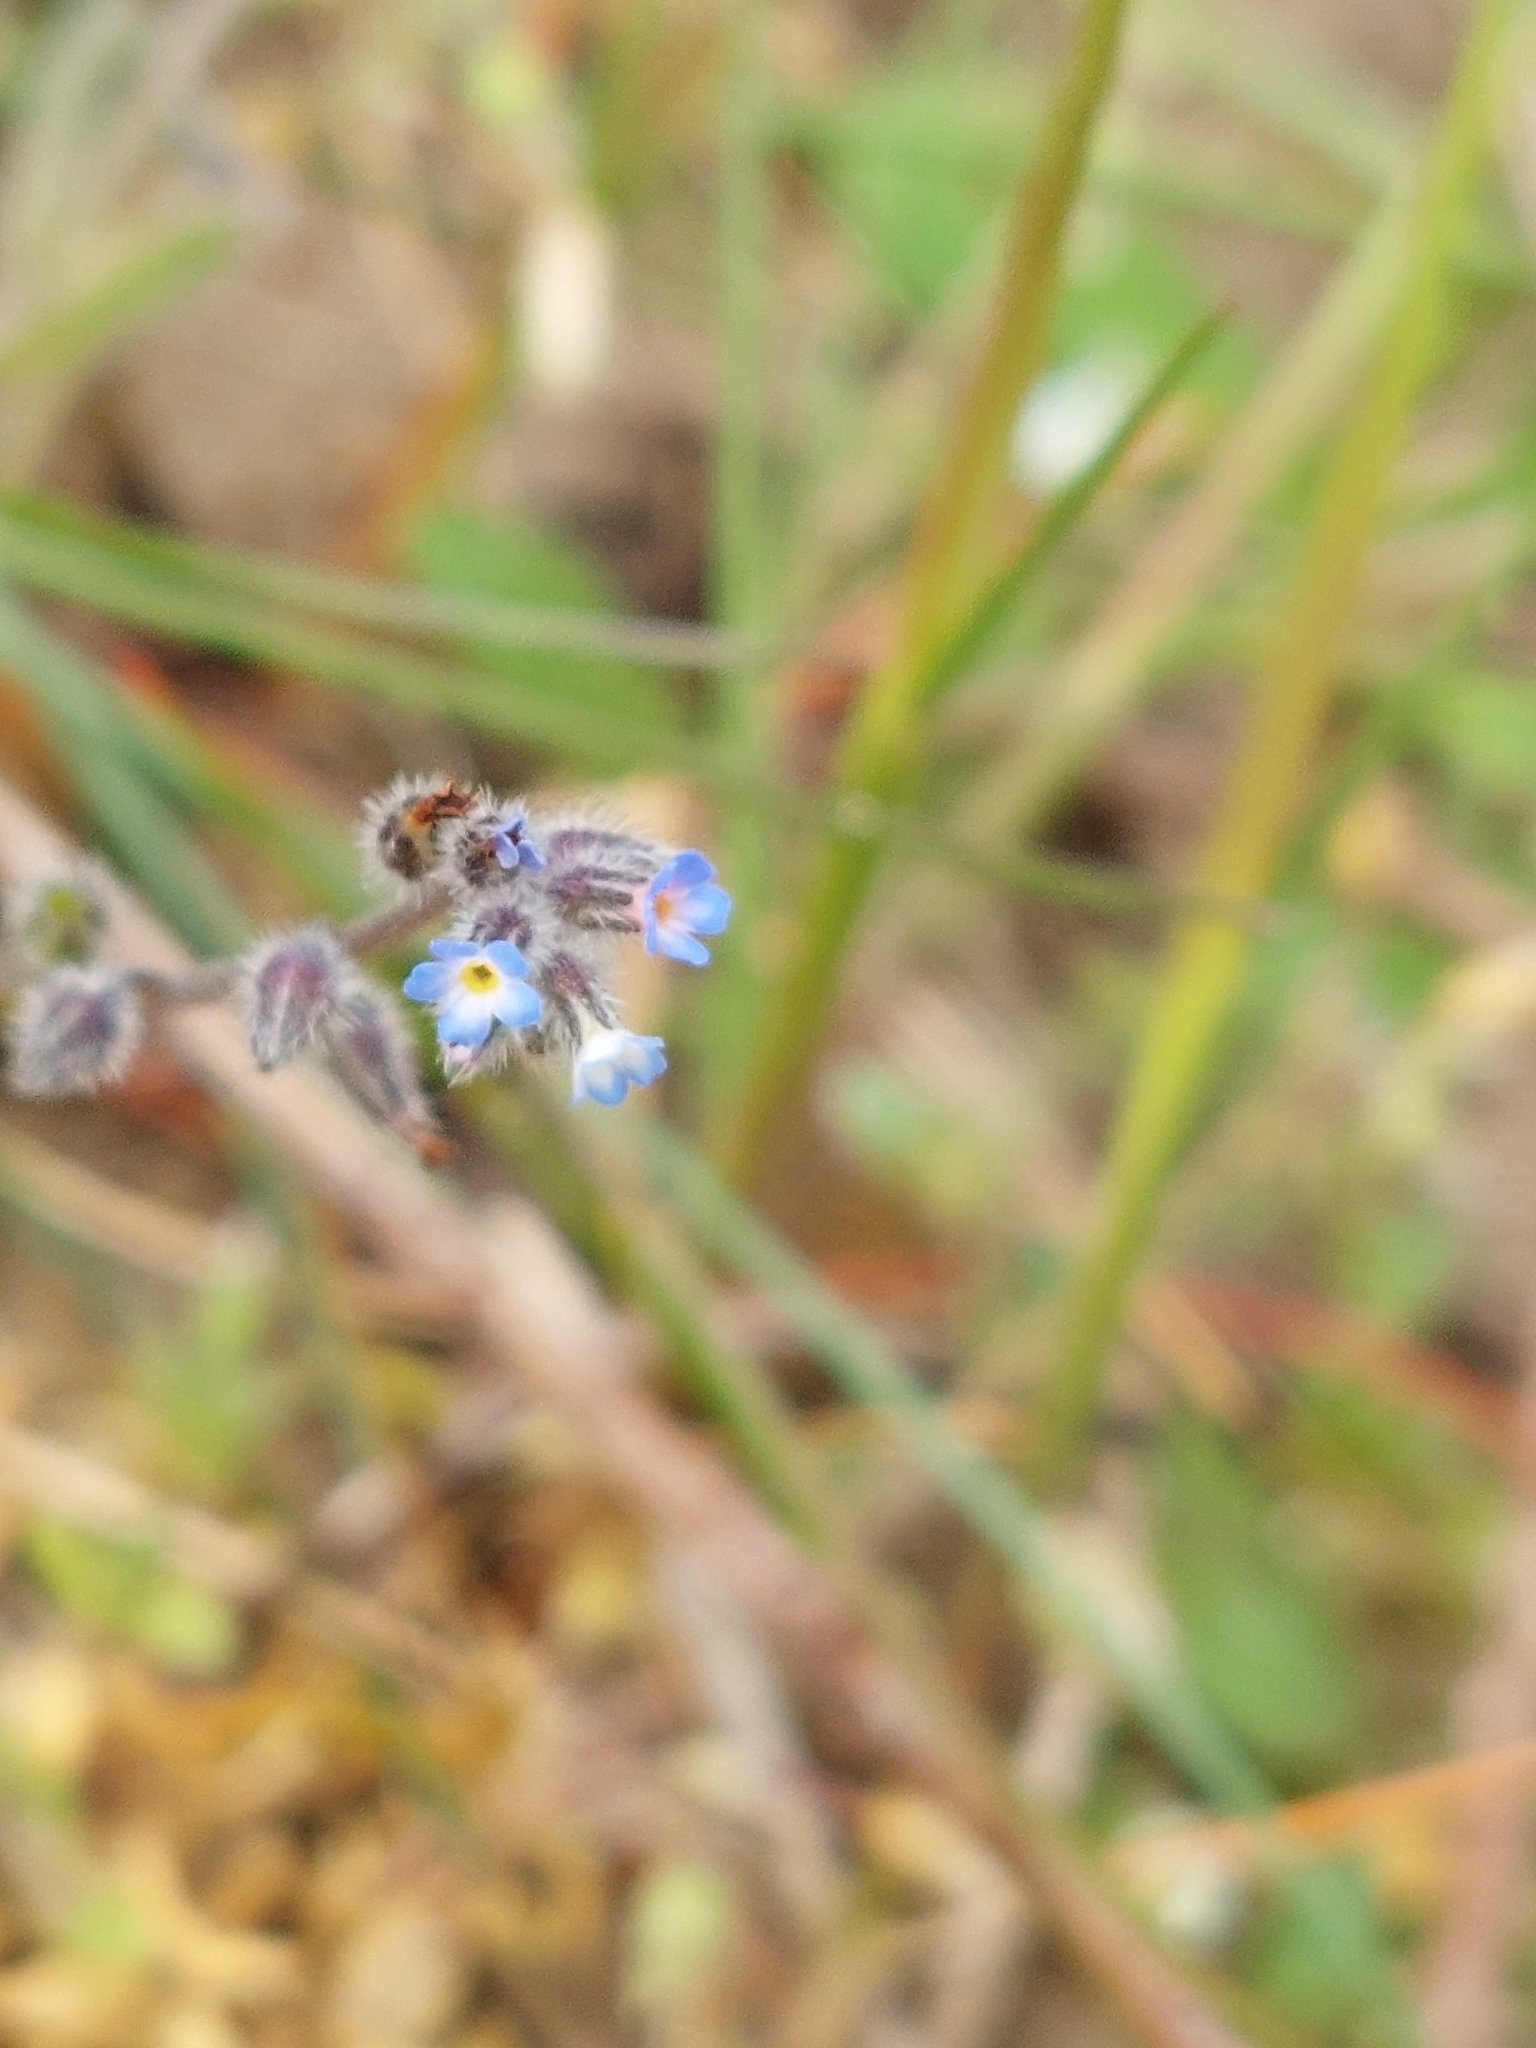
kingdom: Plantae
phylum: Tracheophyta
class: Magnoliopsida
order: Boraginales
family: Boraginaceae
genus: Myosotis
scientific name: Myosotis ramosissima
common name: Early forget-me-not
